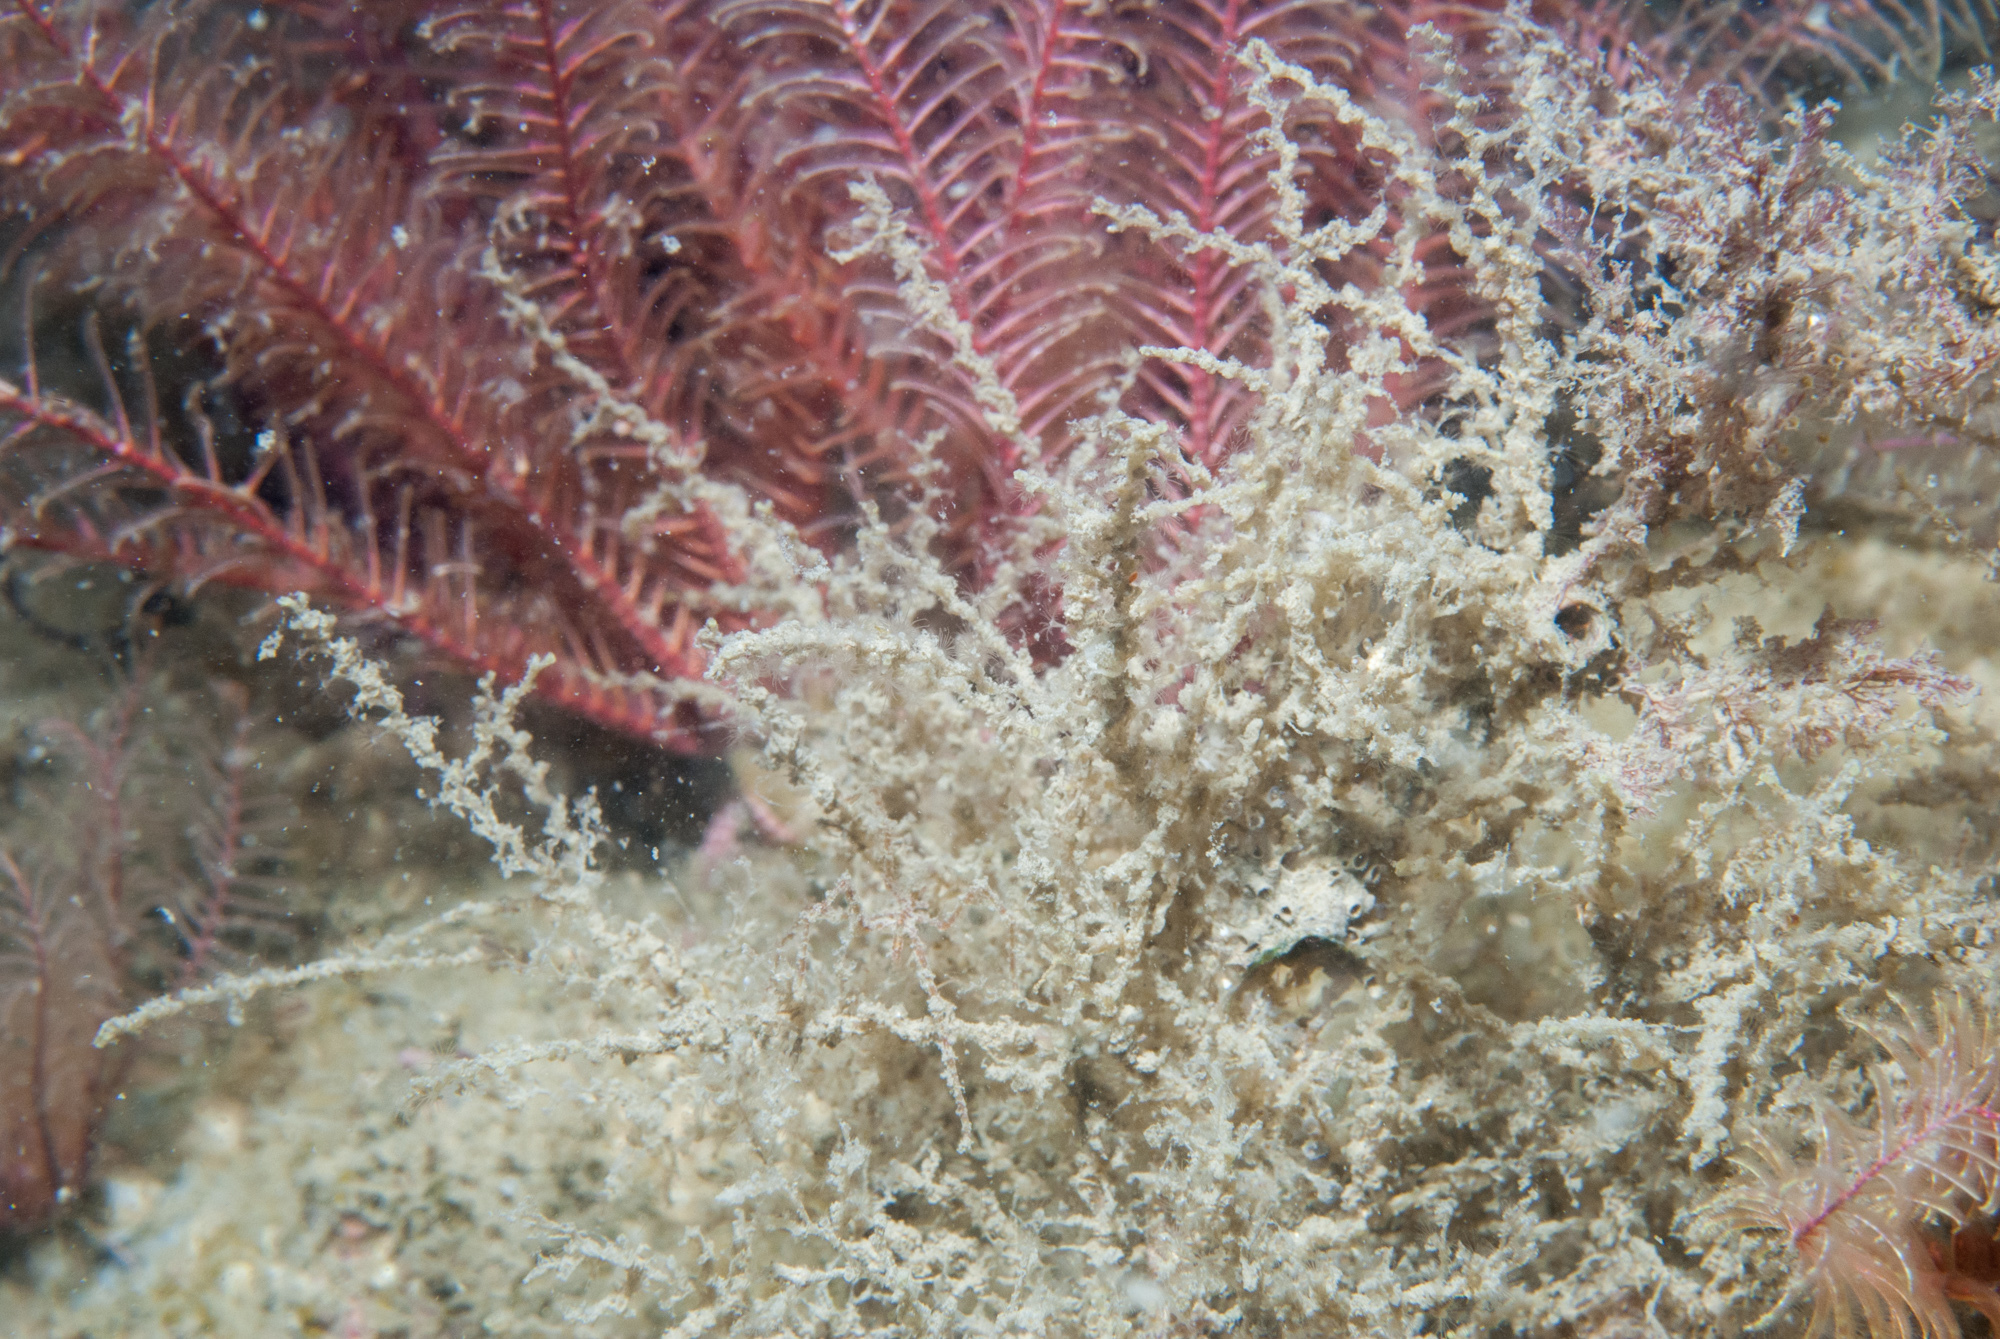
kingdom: Animalia
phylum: Cnidaria
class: Hydrozoa
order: Leptothecata
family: Sertularellidae
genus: Sertularella
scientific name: Sertularella polyzonias
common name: Great tooth hydroid
